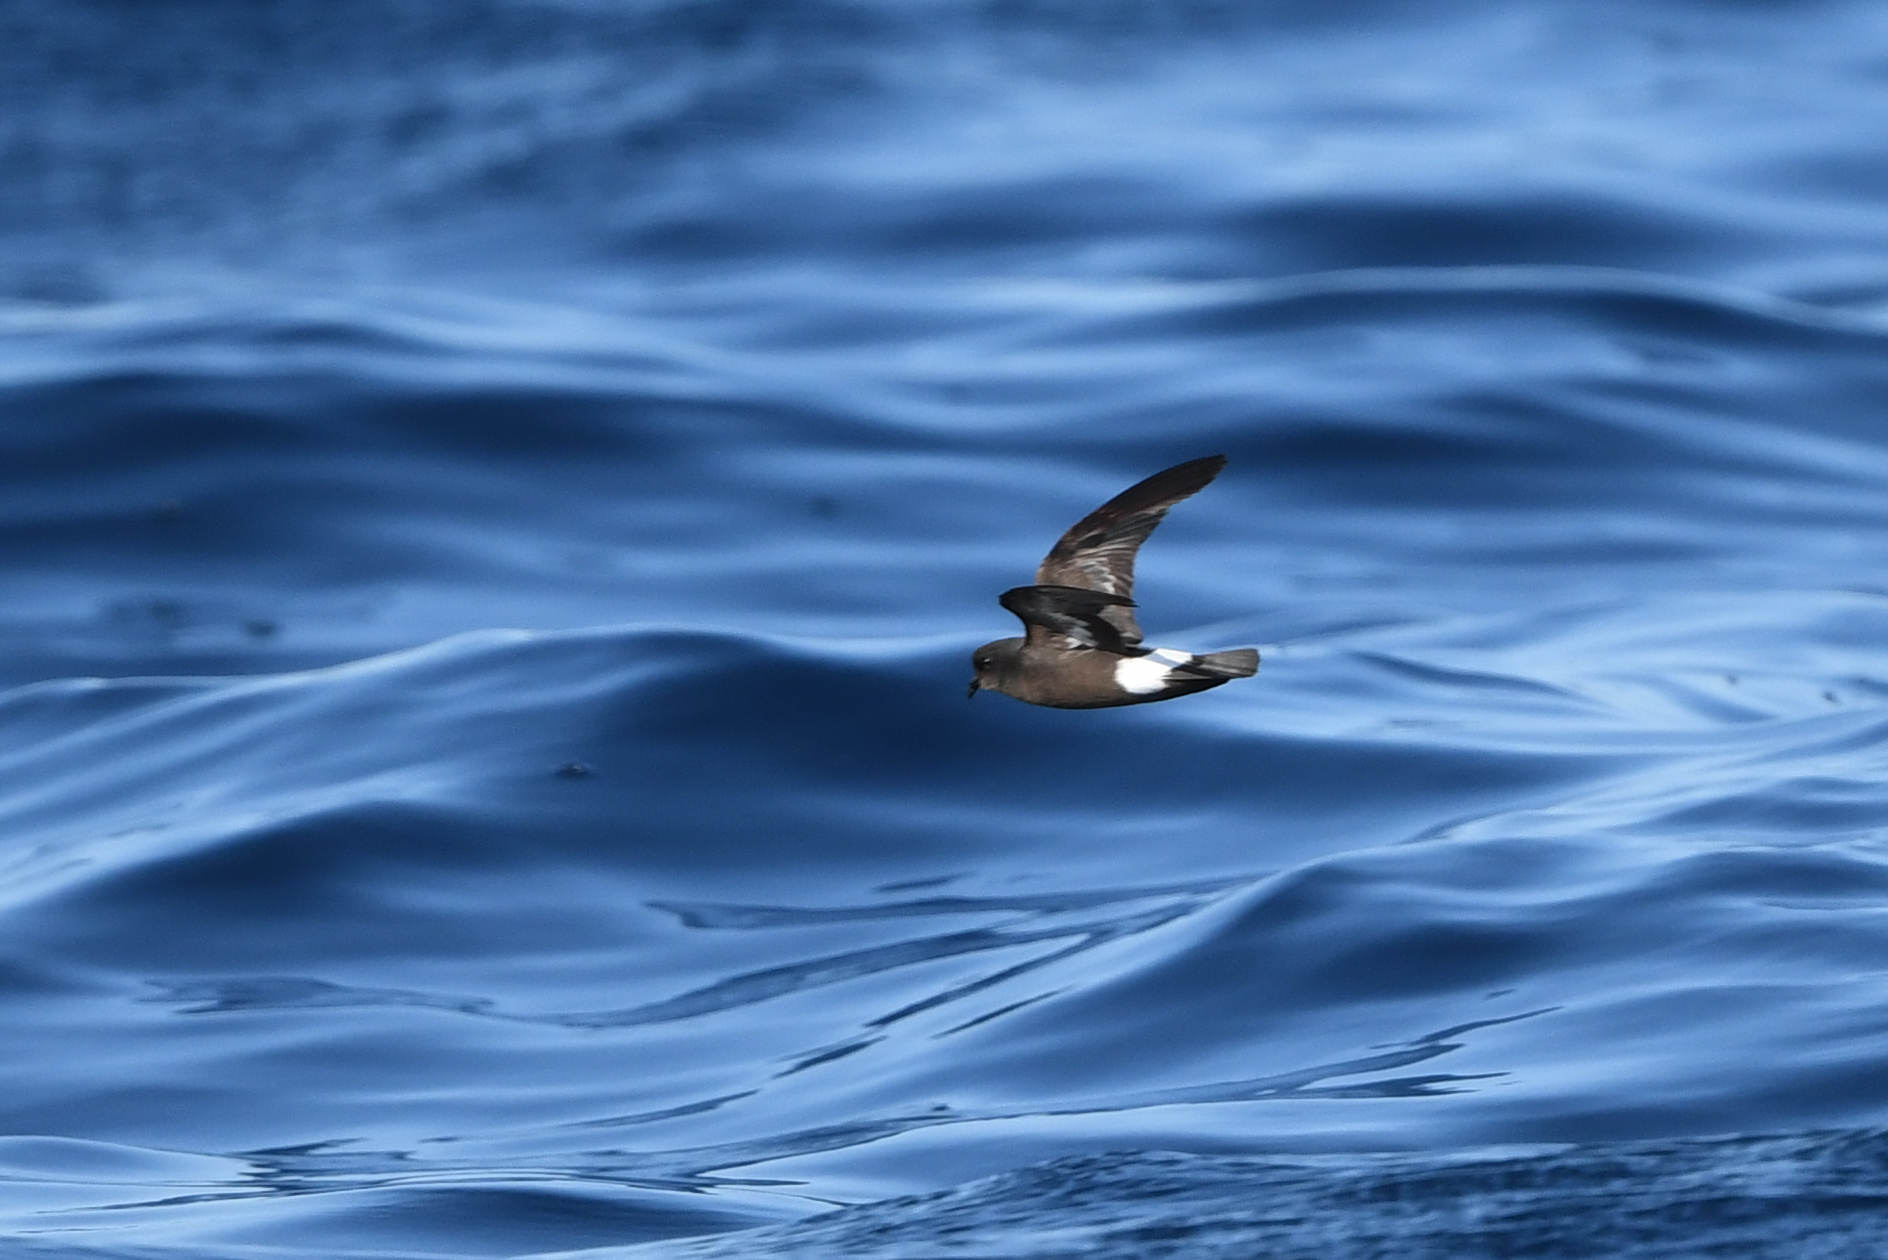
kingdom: Animalia
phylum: Chordata
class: Aves
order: Procellariiformes
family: Hydrobatidae
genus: Hydrobates
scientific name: Hydrobates pelagicus
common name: European storm-petrel
